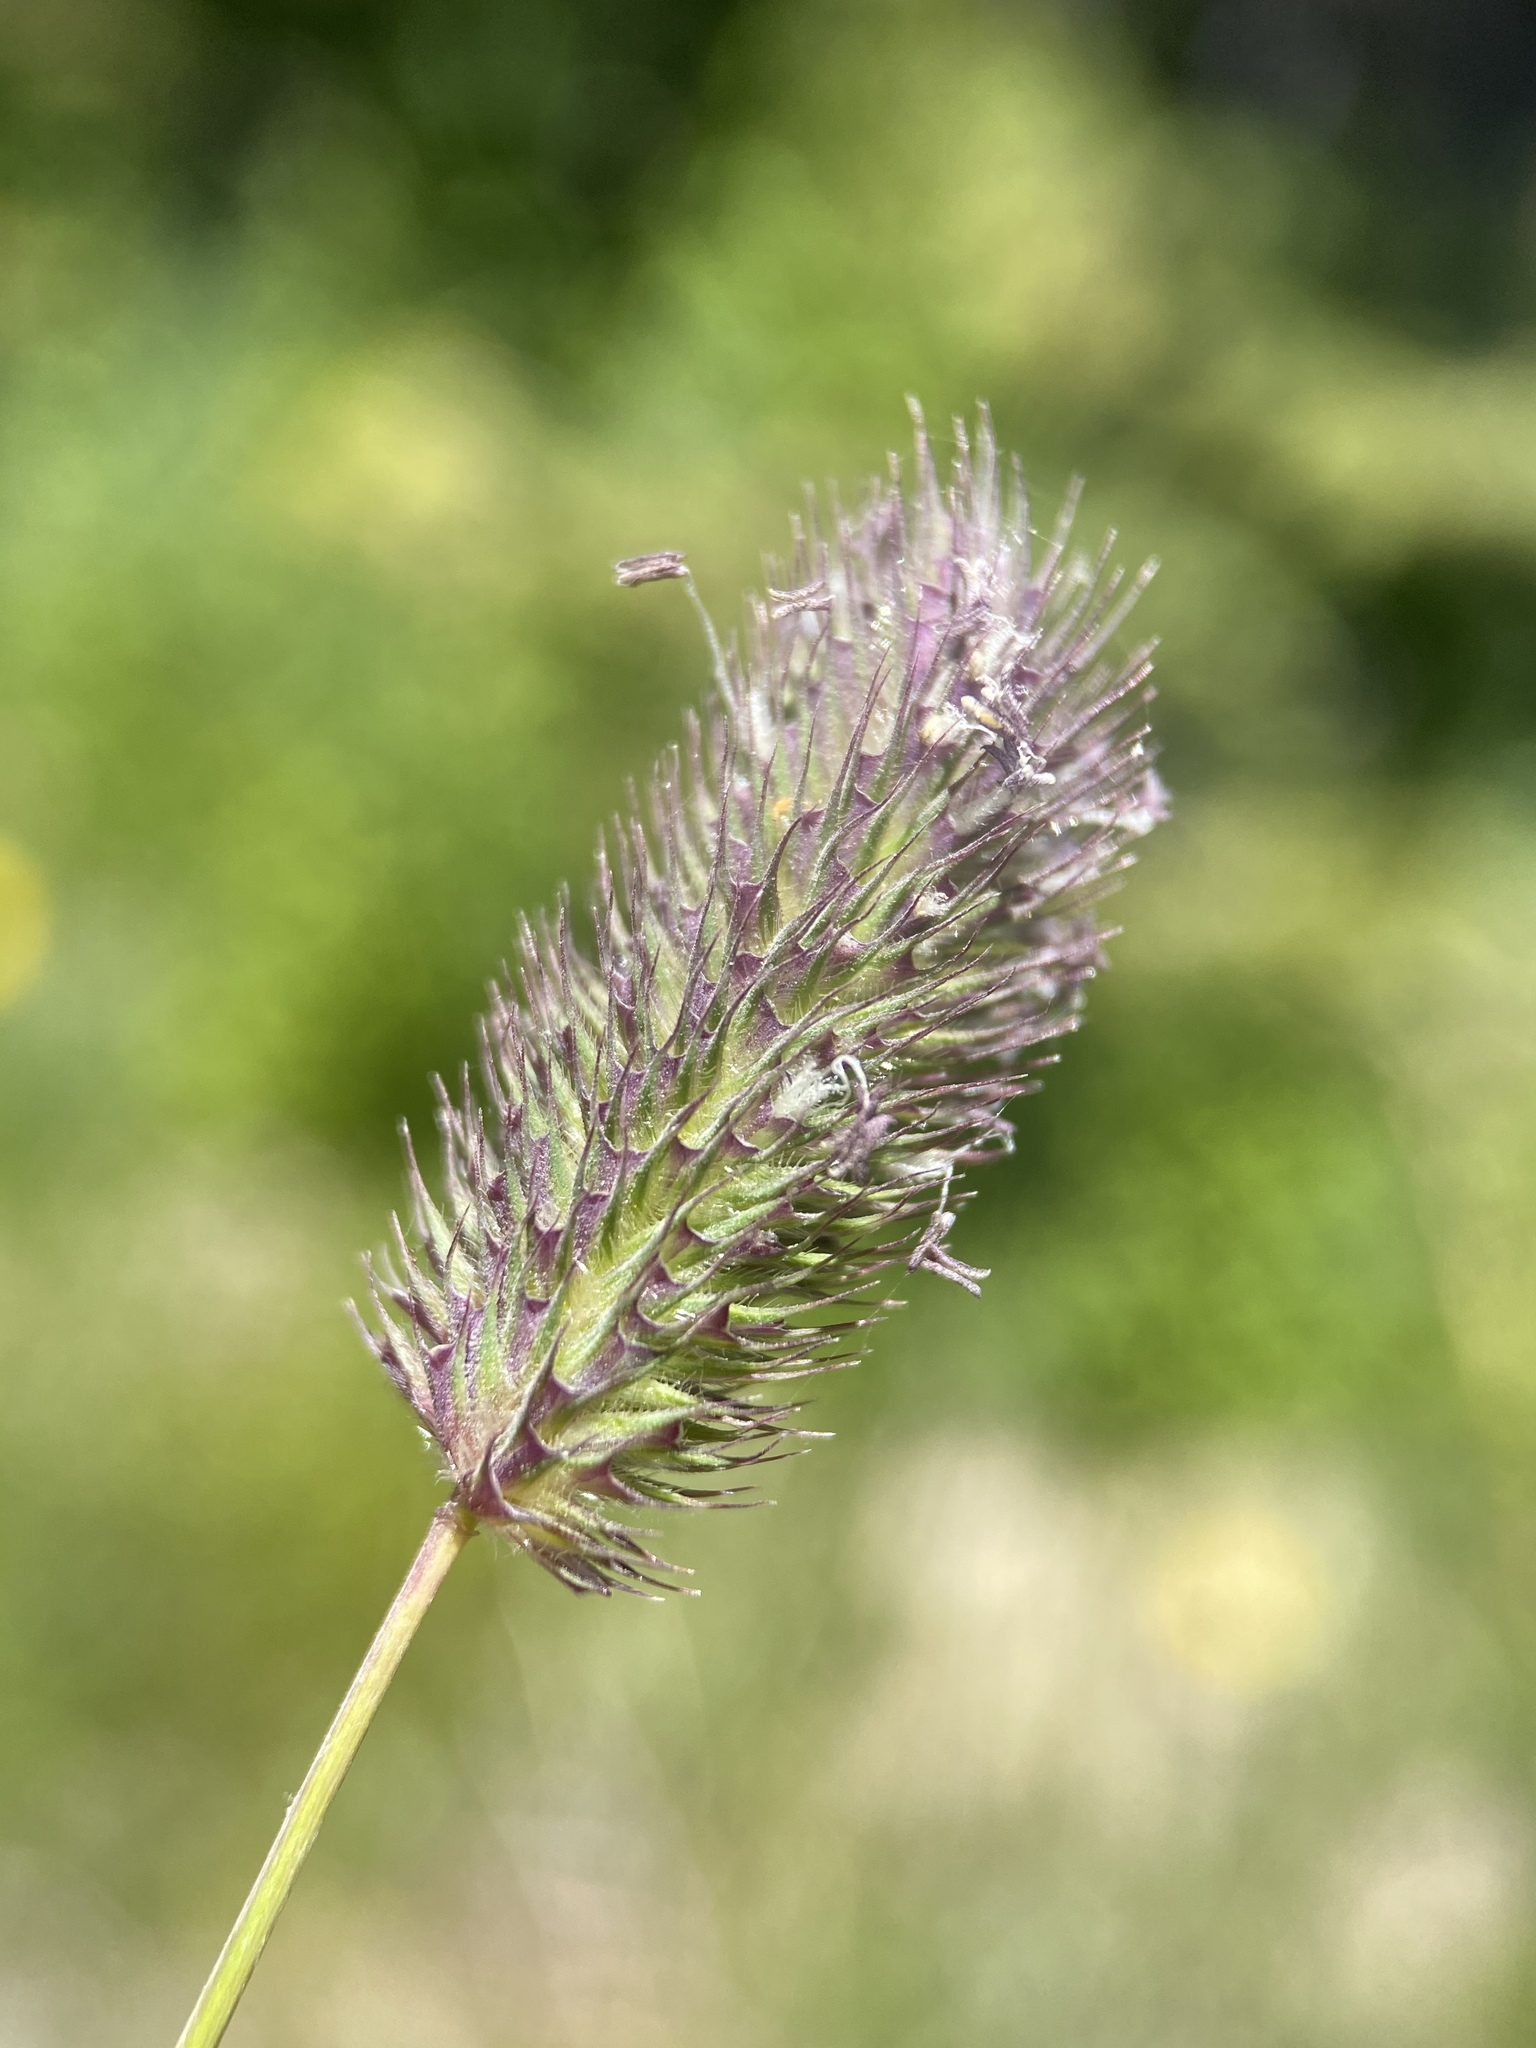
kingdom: Plantae
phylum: Tracheophyta
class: Liliopsida
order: Poales
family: Poaceae
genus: Phleum
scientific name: Phleum alpinum
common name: Alpine cat's-tail
